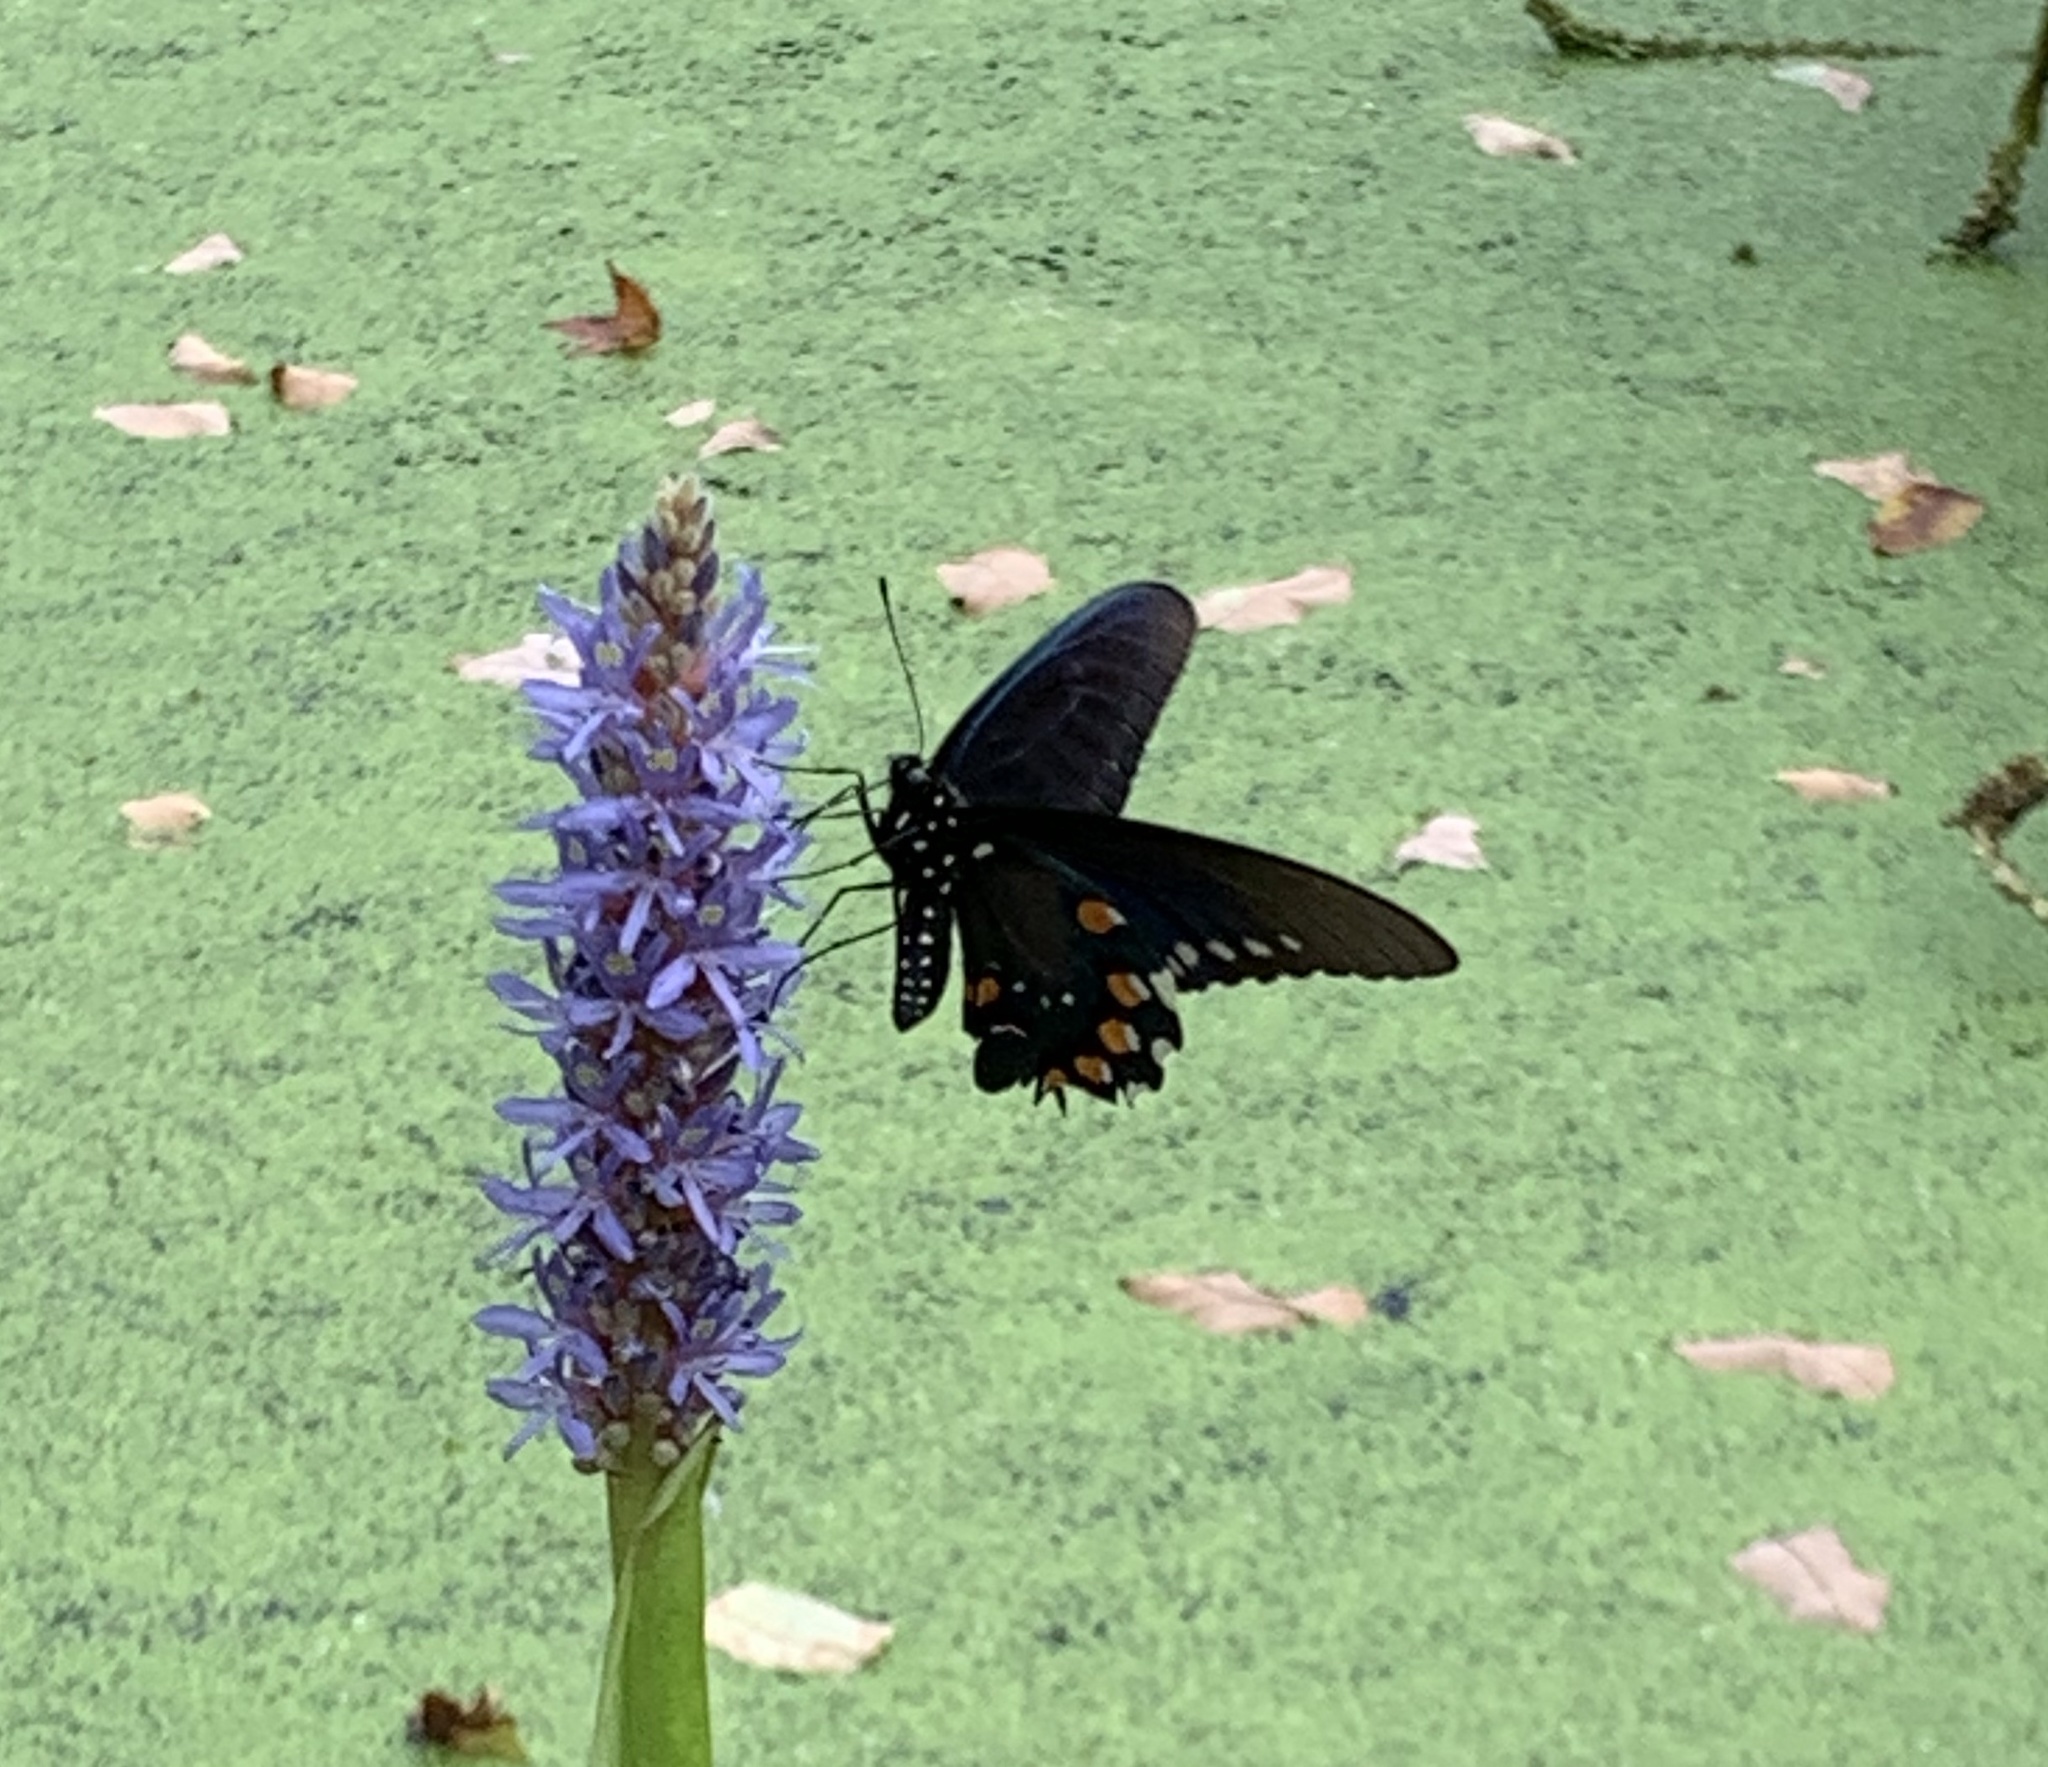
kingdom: Animalia
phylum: Arthropoda
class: Insecta
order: Lepidoptera
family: Papilionidae
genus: Battus
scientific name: Battus philenor
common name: Pipevine swallowtail
